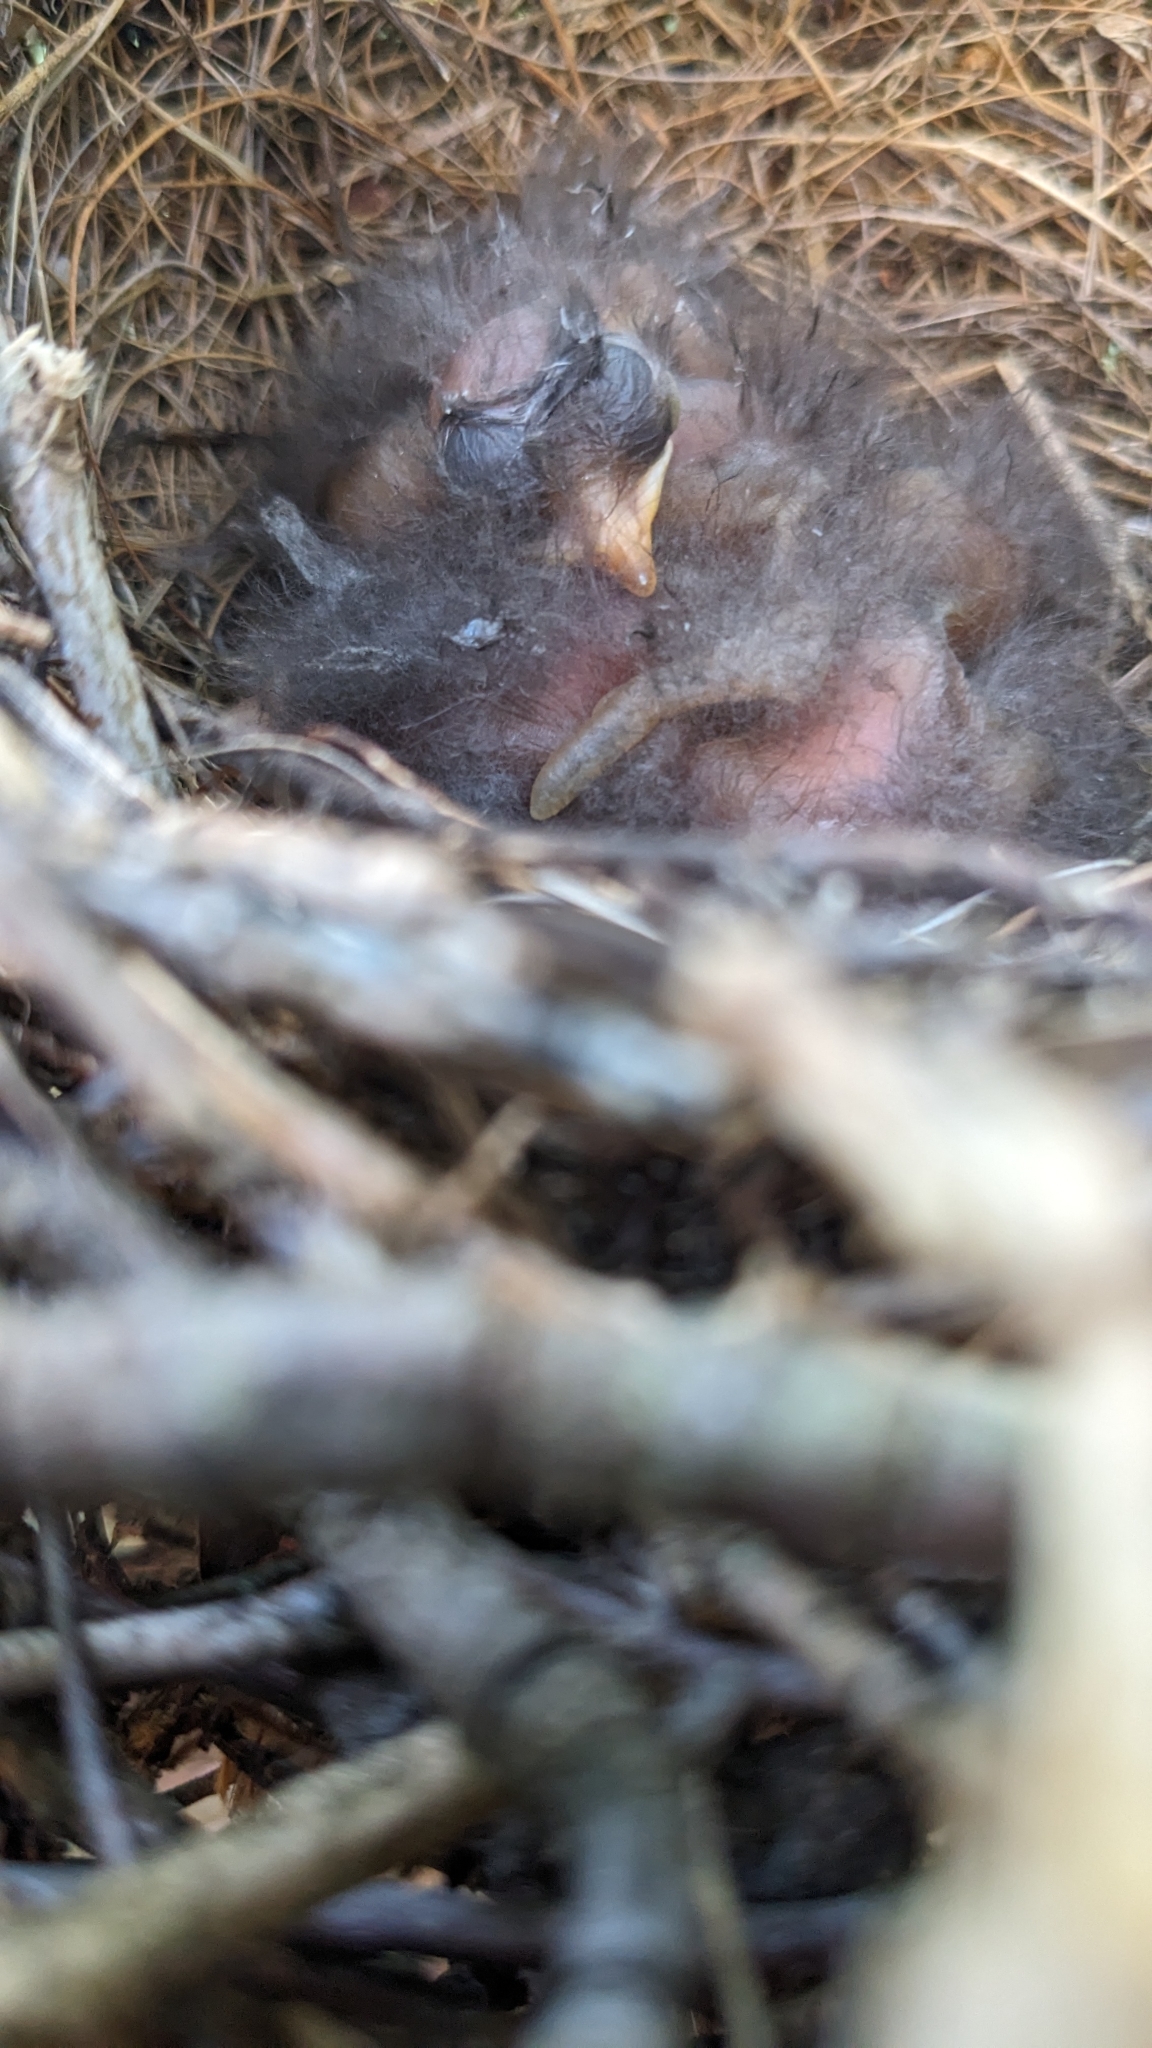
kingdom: Animalia
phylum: Chordata
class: Aves
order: Passeriformes
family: Mimidae
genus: Mimus
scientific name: Mimus polyglottos
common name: Northern mockingbird
